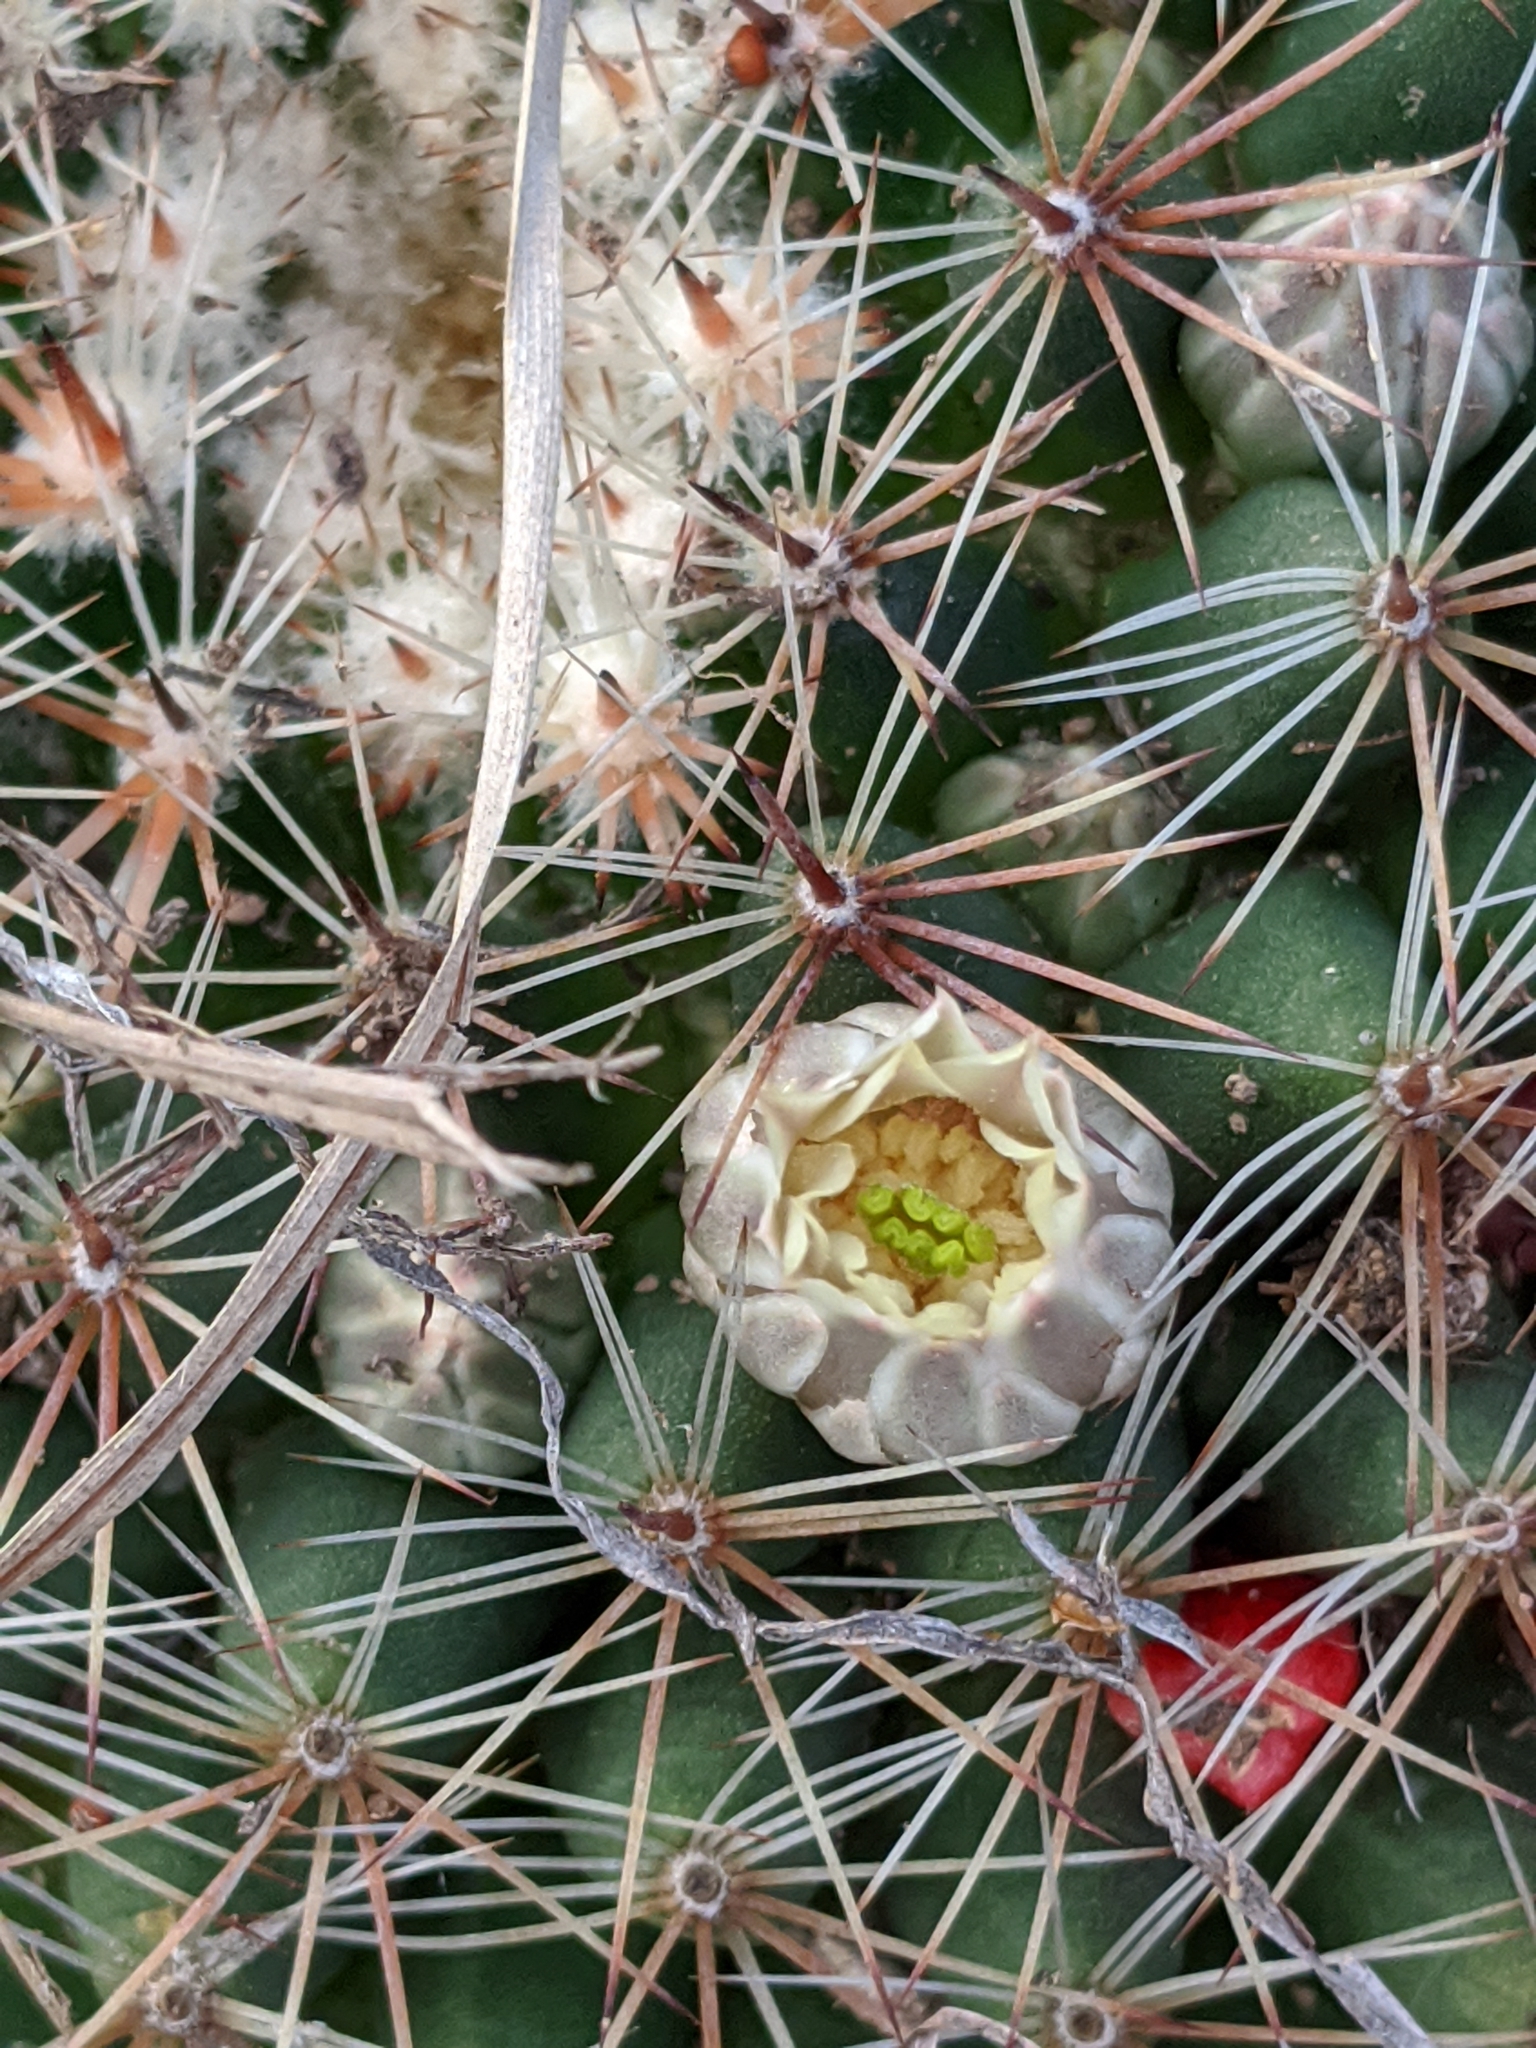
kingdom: Plantae
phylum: Tracheophyta
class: Magnoliopsida
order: Caryophyllales
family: Cactaceae
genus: Mammillaria
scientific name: Mammillaria heyderi
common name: Little nipple cactus
